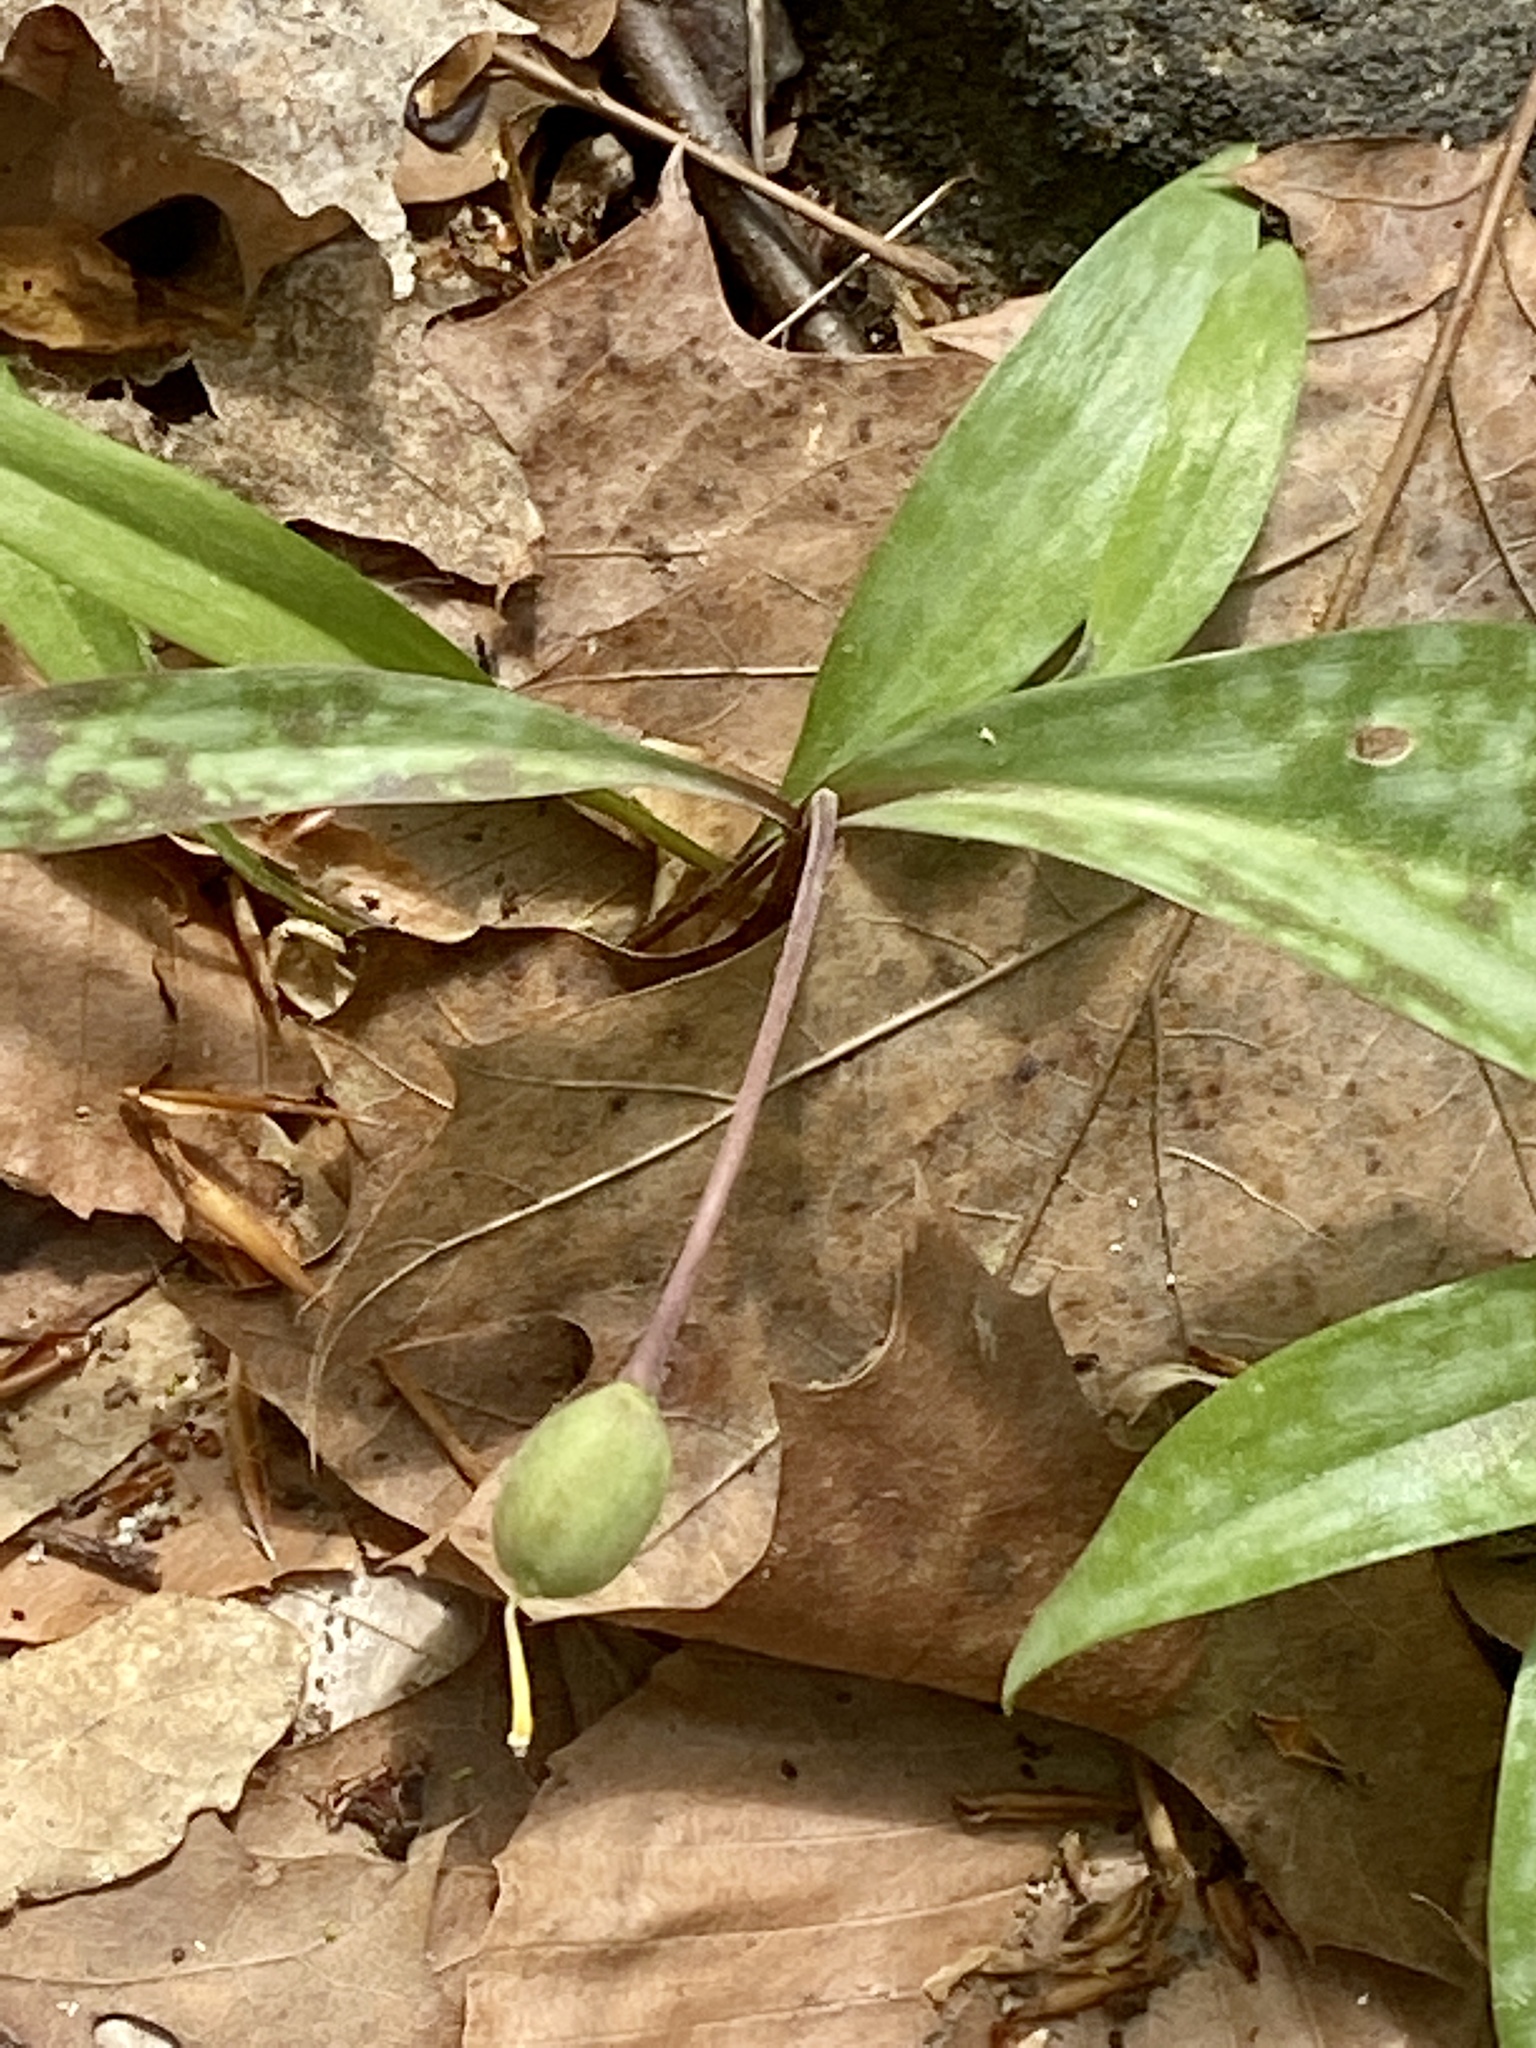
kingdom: Plantae
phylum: Tracheophyta
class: Liliopsida
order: Liliales
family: Liliaceae
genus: Erythronium
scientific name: Erythronium americanum
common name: Yellow adder's-tongue
